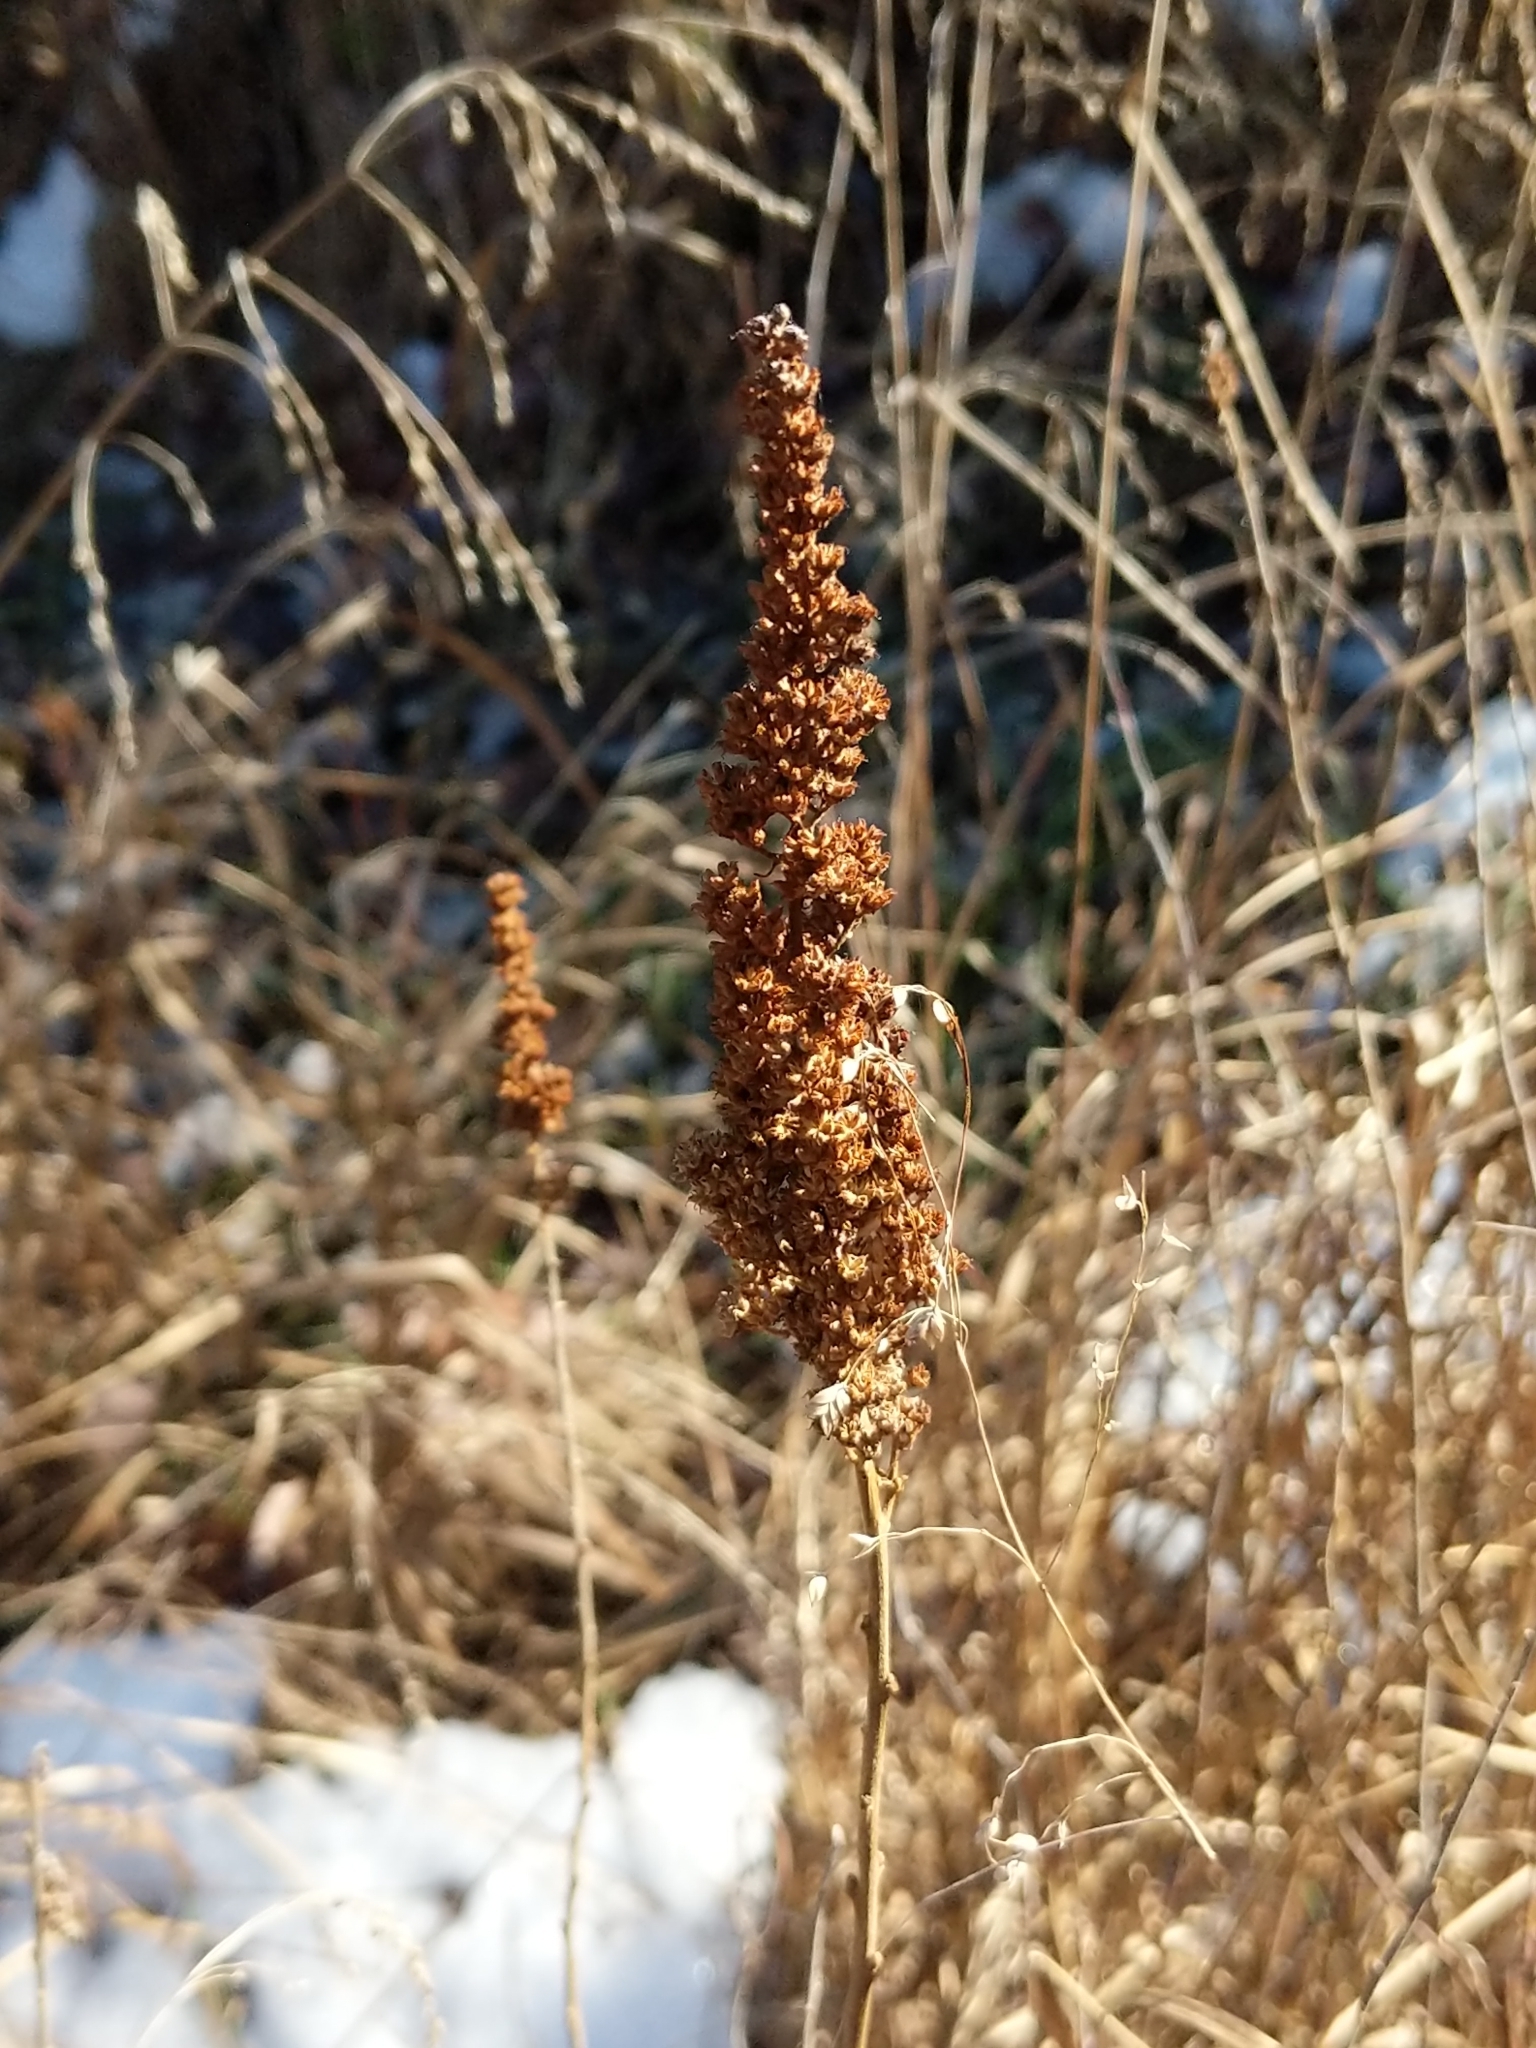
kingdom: Plantae
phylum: Tracheophyta
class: Magnoliopsida
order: Rosales
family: Rosaceae
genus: Spiraea
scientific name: Spiraea tomentosa
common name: Hardhack
